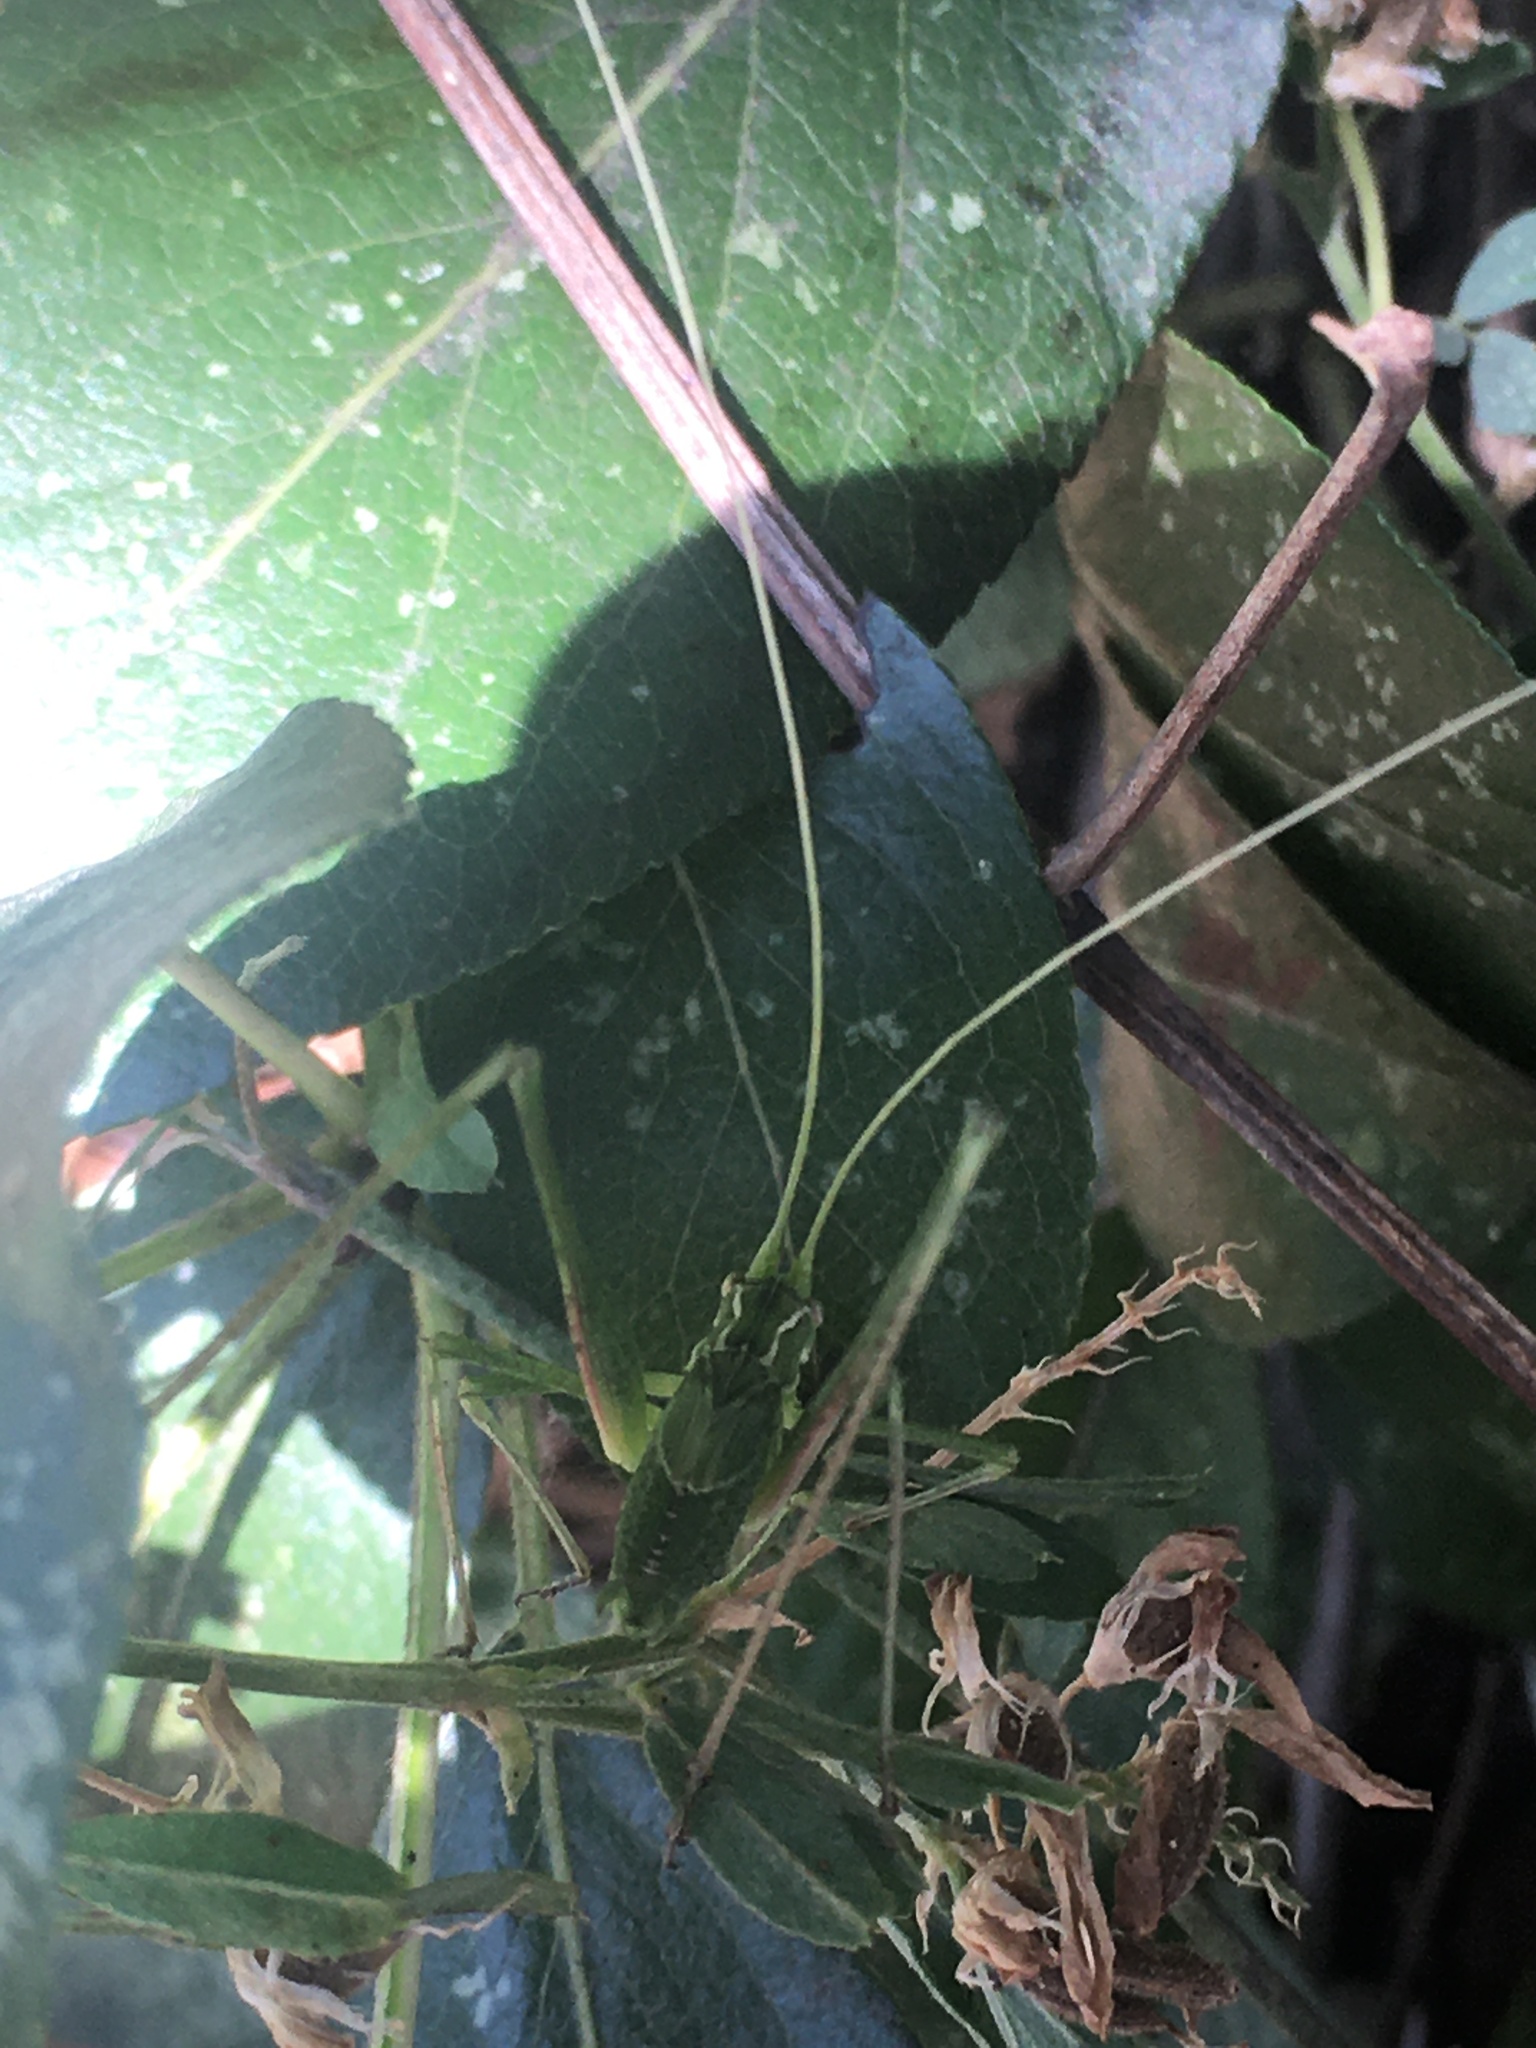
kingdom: Animalia
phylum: Arthropoda
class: Insecta
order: Orthoptera
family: Tettigoniidae
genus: Tylopsis
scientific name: Tylopsis lilifolia
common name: Lily bush-cricket
